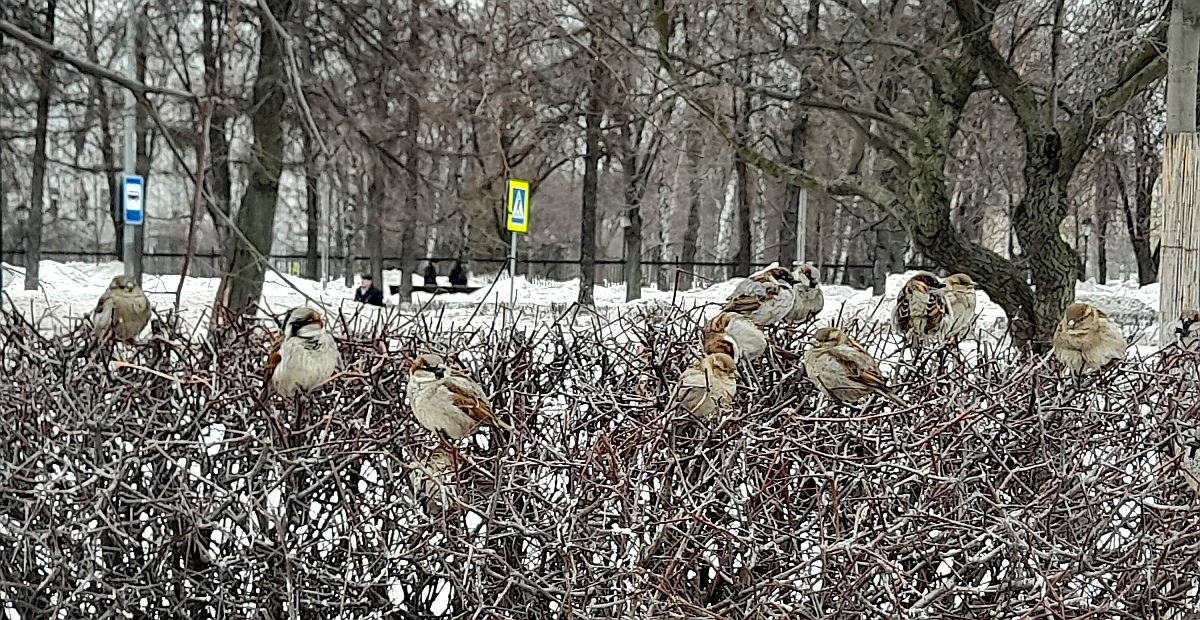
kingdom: Animalia
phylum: Chordata
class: Aves
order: Passeriformes
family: Passeridae
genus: Passer
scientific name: Passer domesticus
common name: House sparrow
